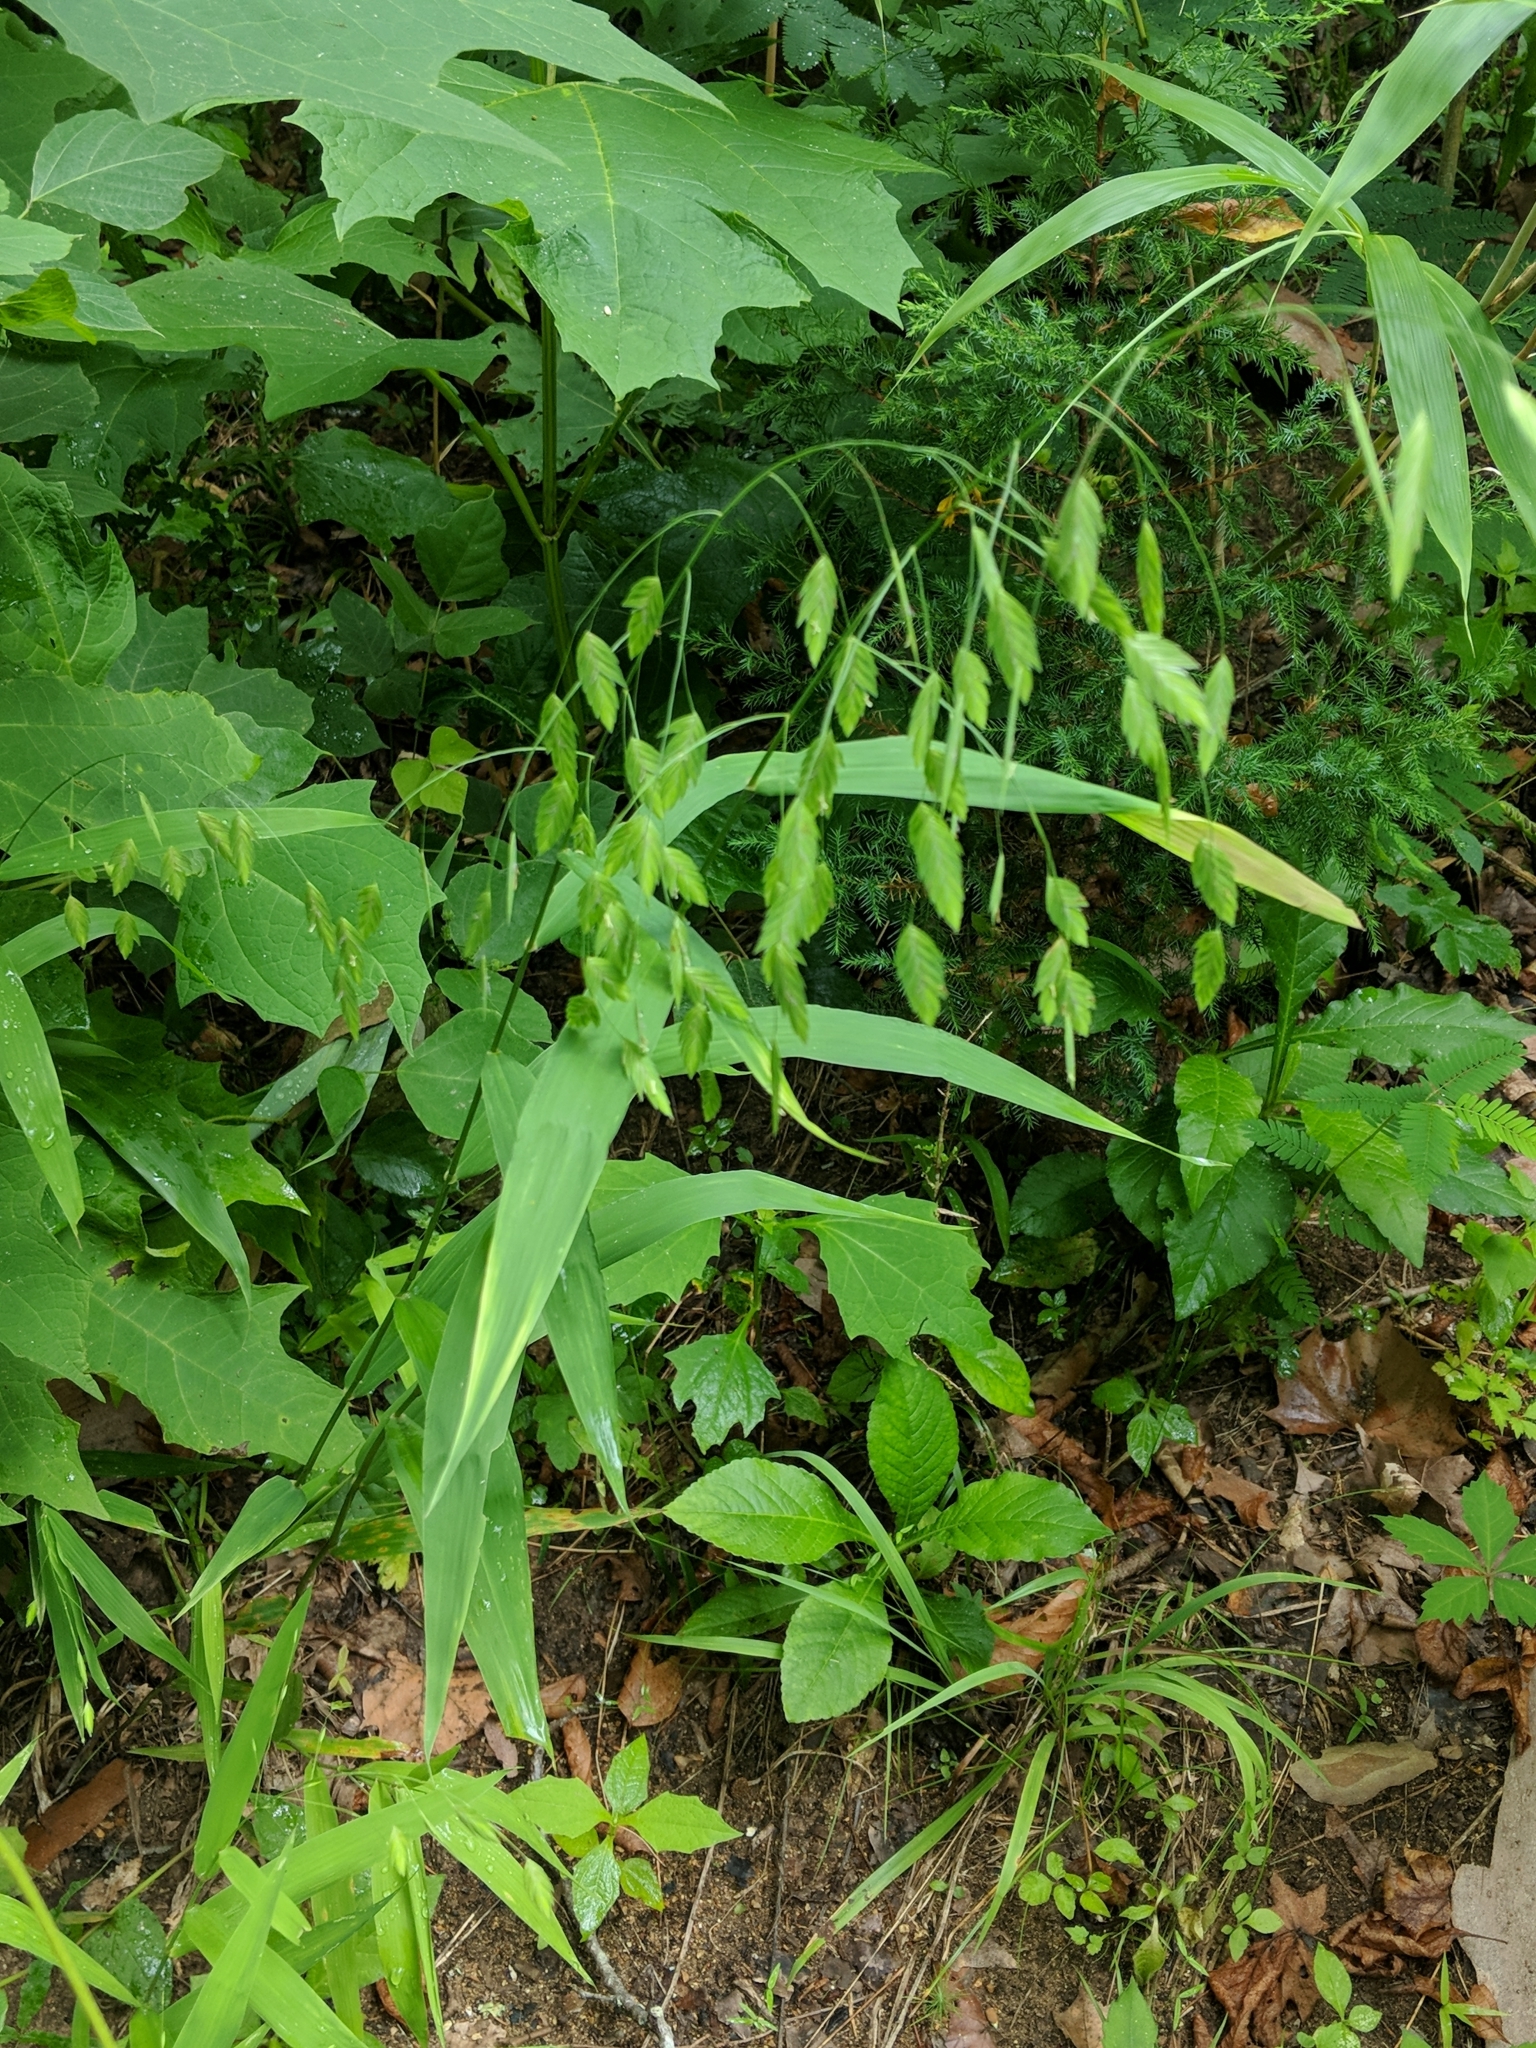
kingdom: Plantae
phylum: Tracheophyta
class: Liliopsida
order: Poales
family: Poaceae
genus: Chasmanthium
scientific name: Chasmanthium latifolium
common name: Broad-leaved chasmanthium
